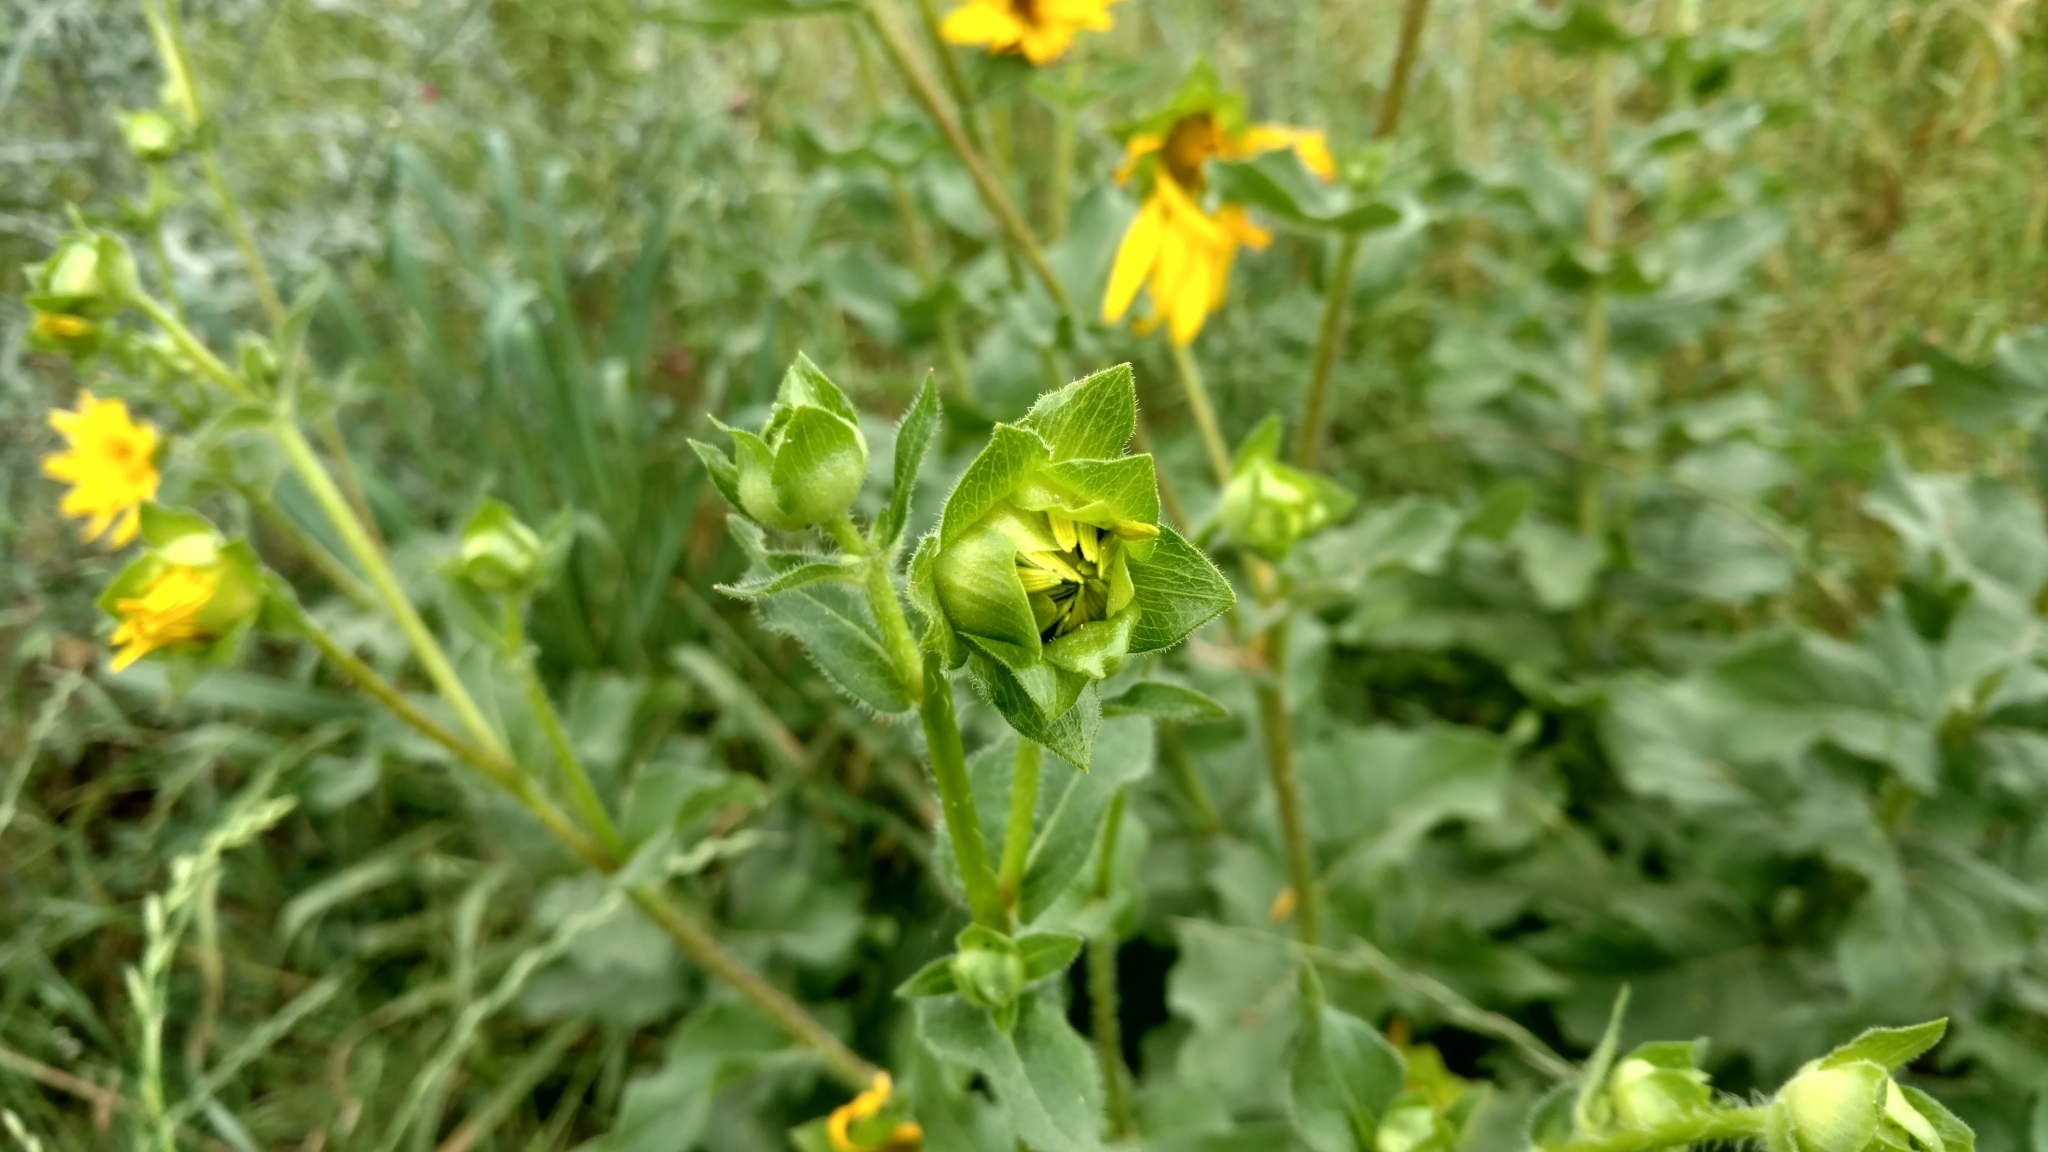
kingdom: Plantae
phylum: Tracheophyta
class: Magnoliopsida
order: Asterales
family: Asteraceae
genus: Silphium
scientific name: Silphium radula
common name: Roughleaf rosinweed
